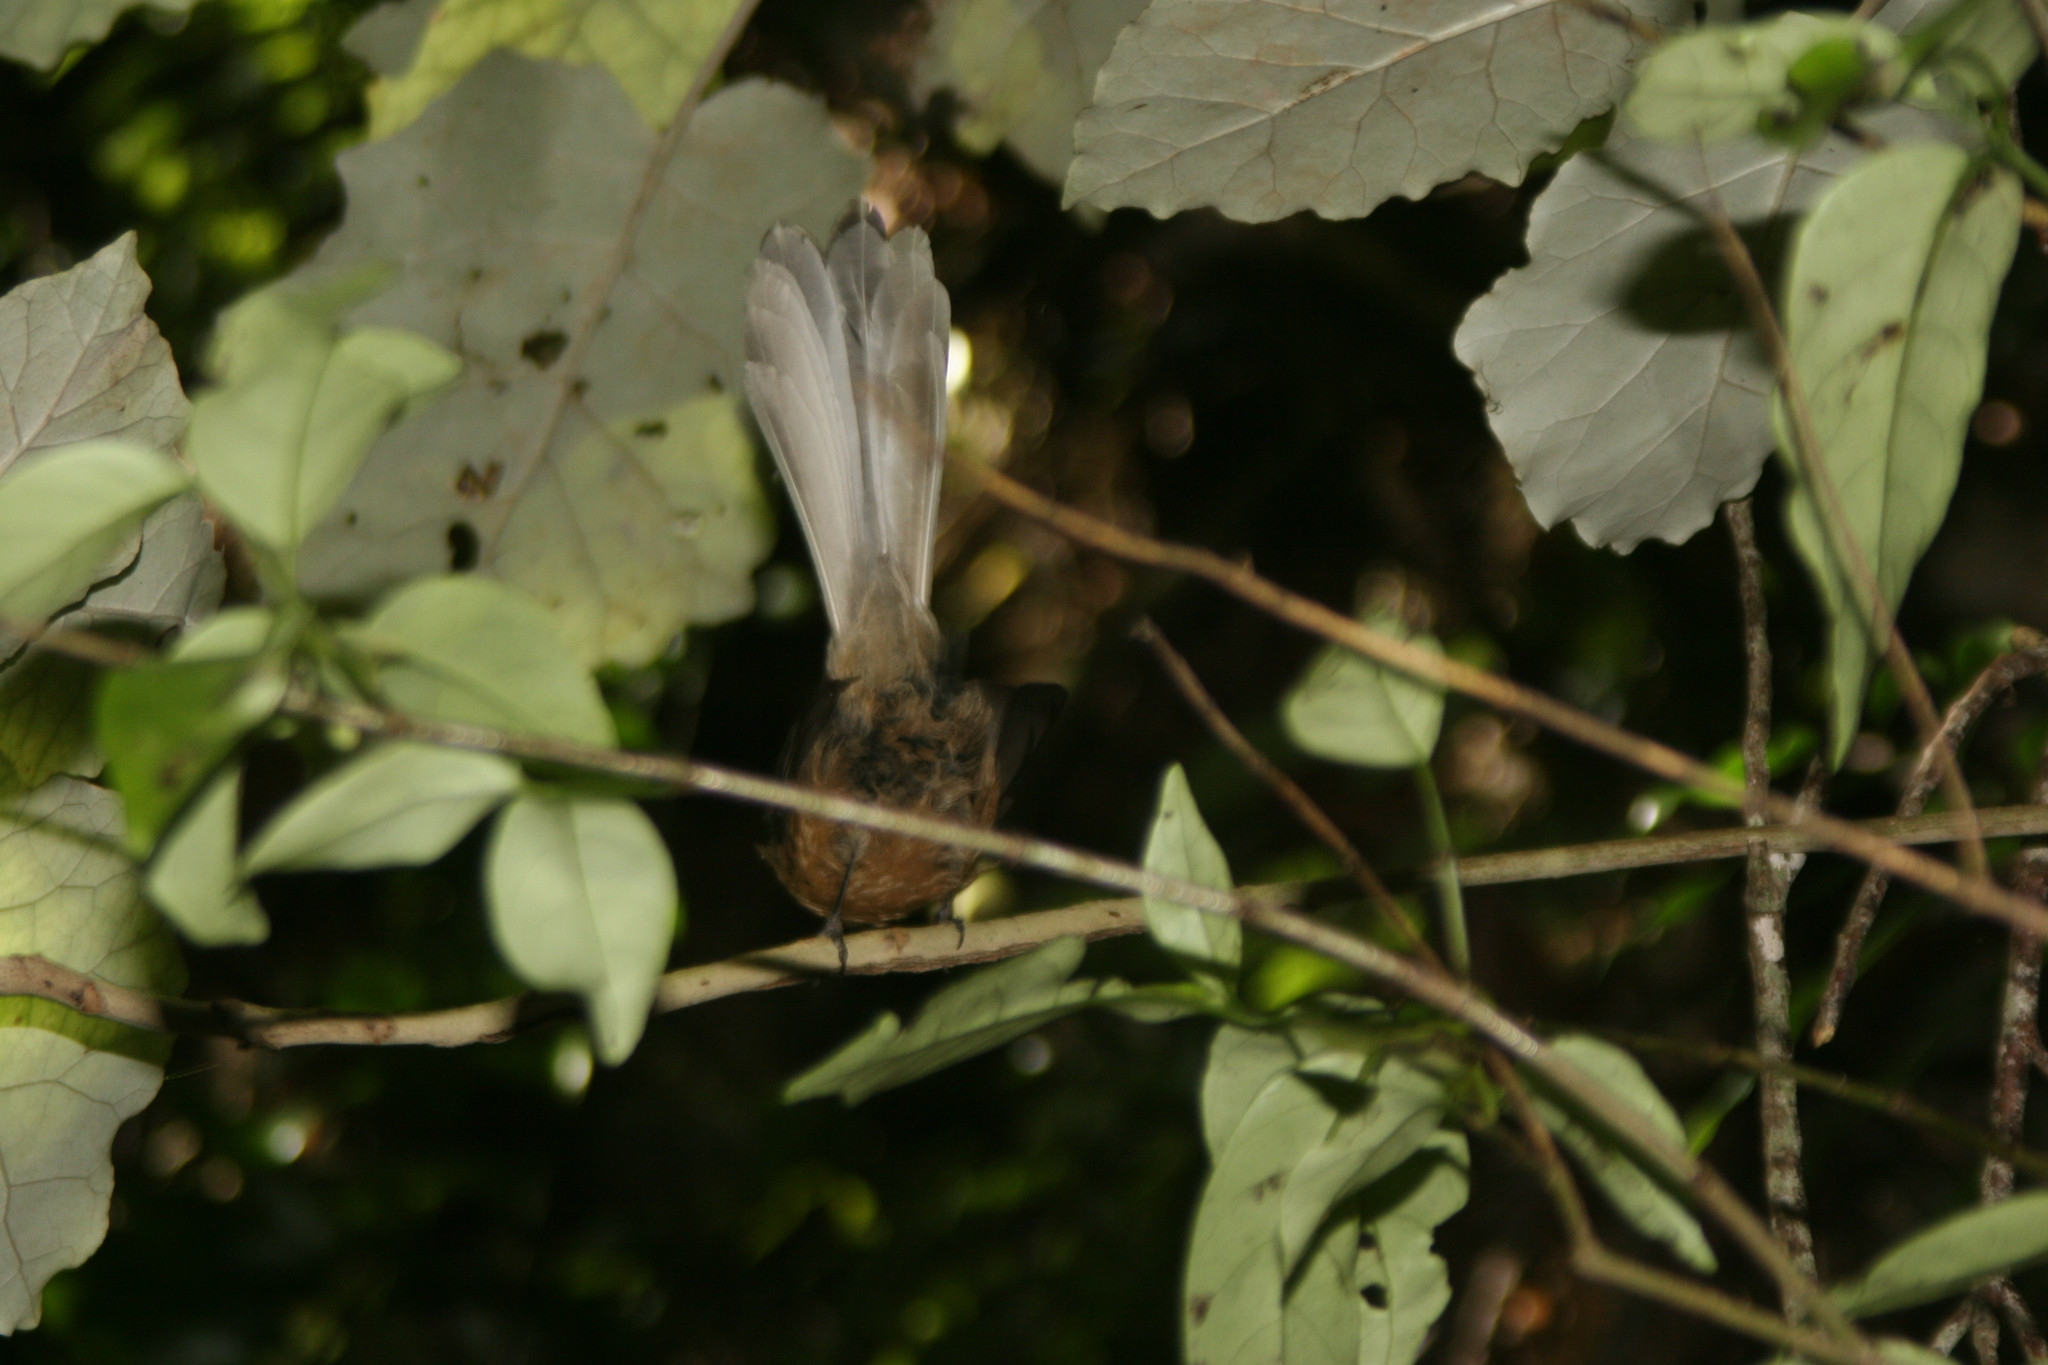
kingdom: Animalia
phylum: Chordata
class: Aves
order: Passeriformes
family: Rhipiduridae
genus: Rhipidura
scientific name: Rhipidura fuliginosa
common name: New zealand fantail
